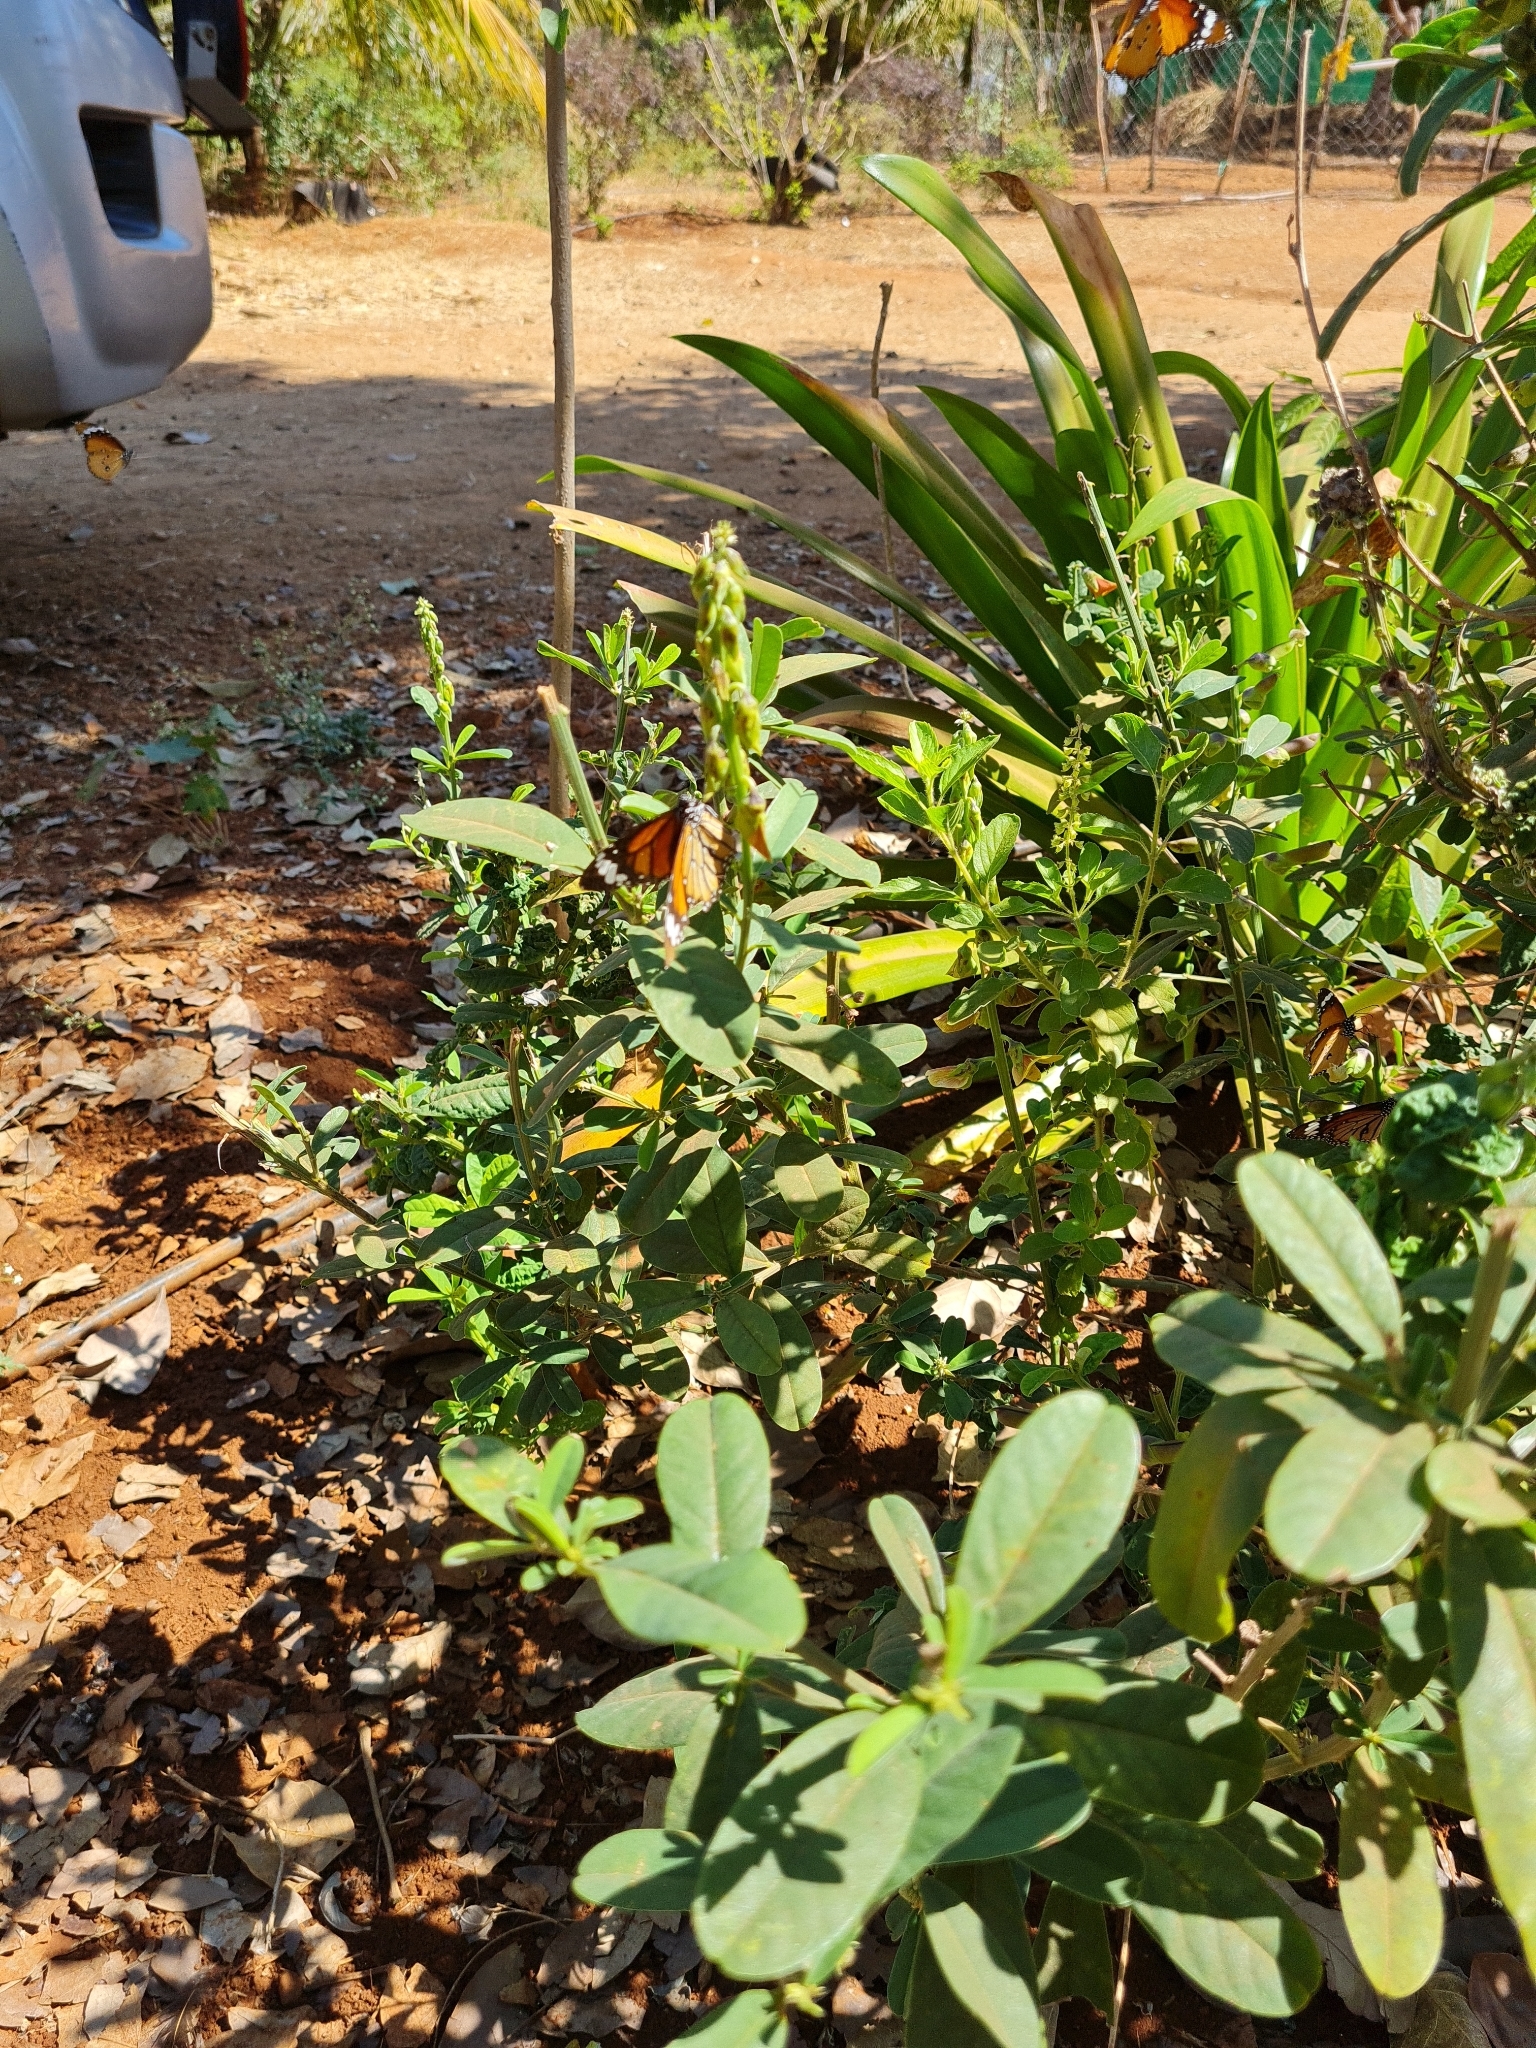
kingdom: Animalia
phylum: Arthropoda
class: Insecta
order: Lepidoptera
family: Nymphalidae
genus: Danaus
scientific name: Danaus genutia
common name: Common tiger butterfly
